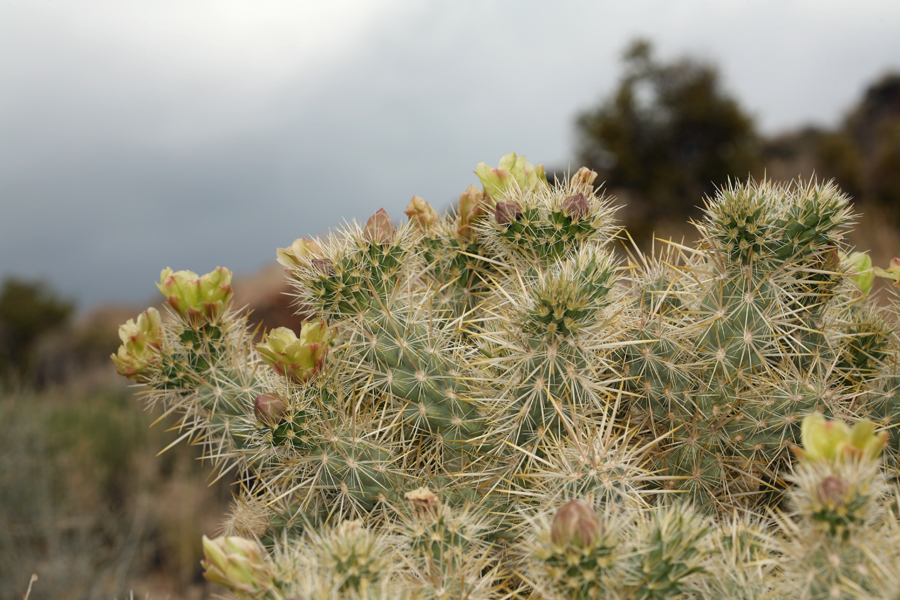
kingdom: Plantae
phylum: Tracheophyta
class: Magnoliopsida
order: Caryophyllales
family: Cactaceae
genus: Cylindropuntia
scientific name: Cylindropuntia echinocarpa
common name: Ground cholla
